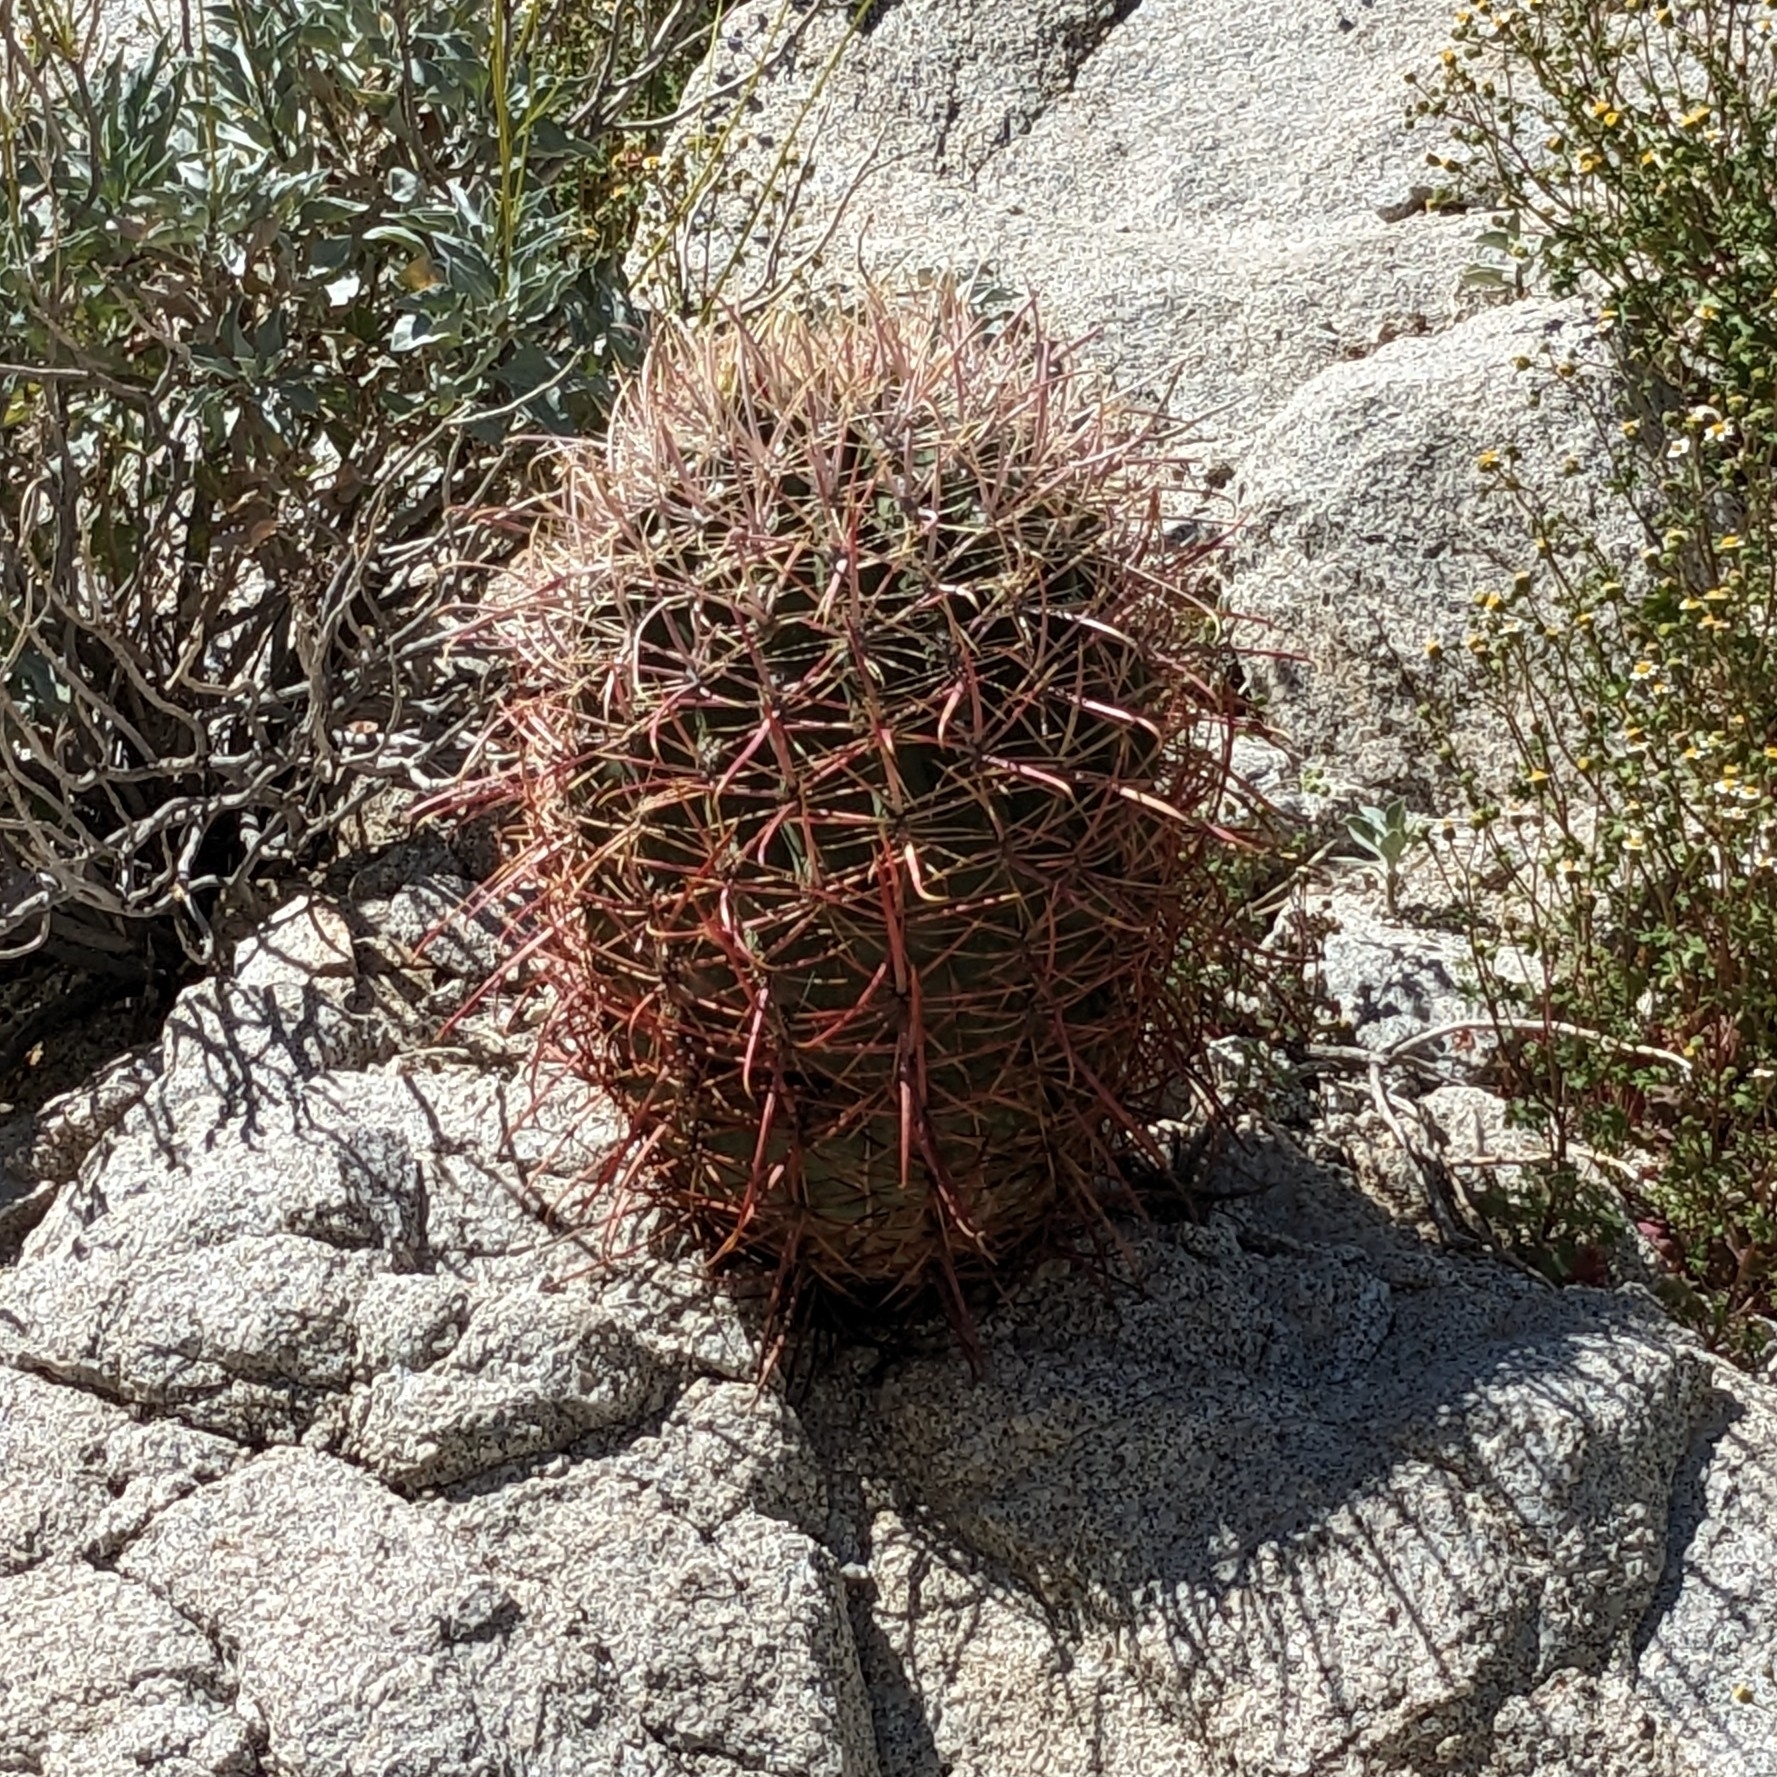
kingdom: Plantae
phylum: Tracheophyta
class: Magnoliopsida
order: Caryophyllales
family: Cactaceae
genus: Ferocactus
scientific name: Ferocactus cylindraceus
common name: California barrel cactus
